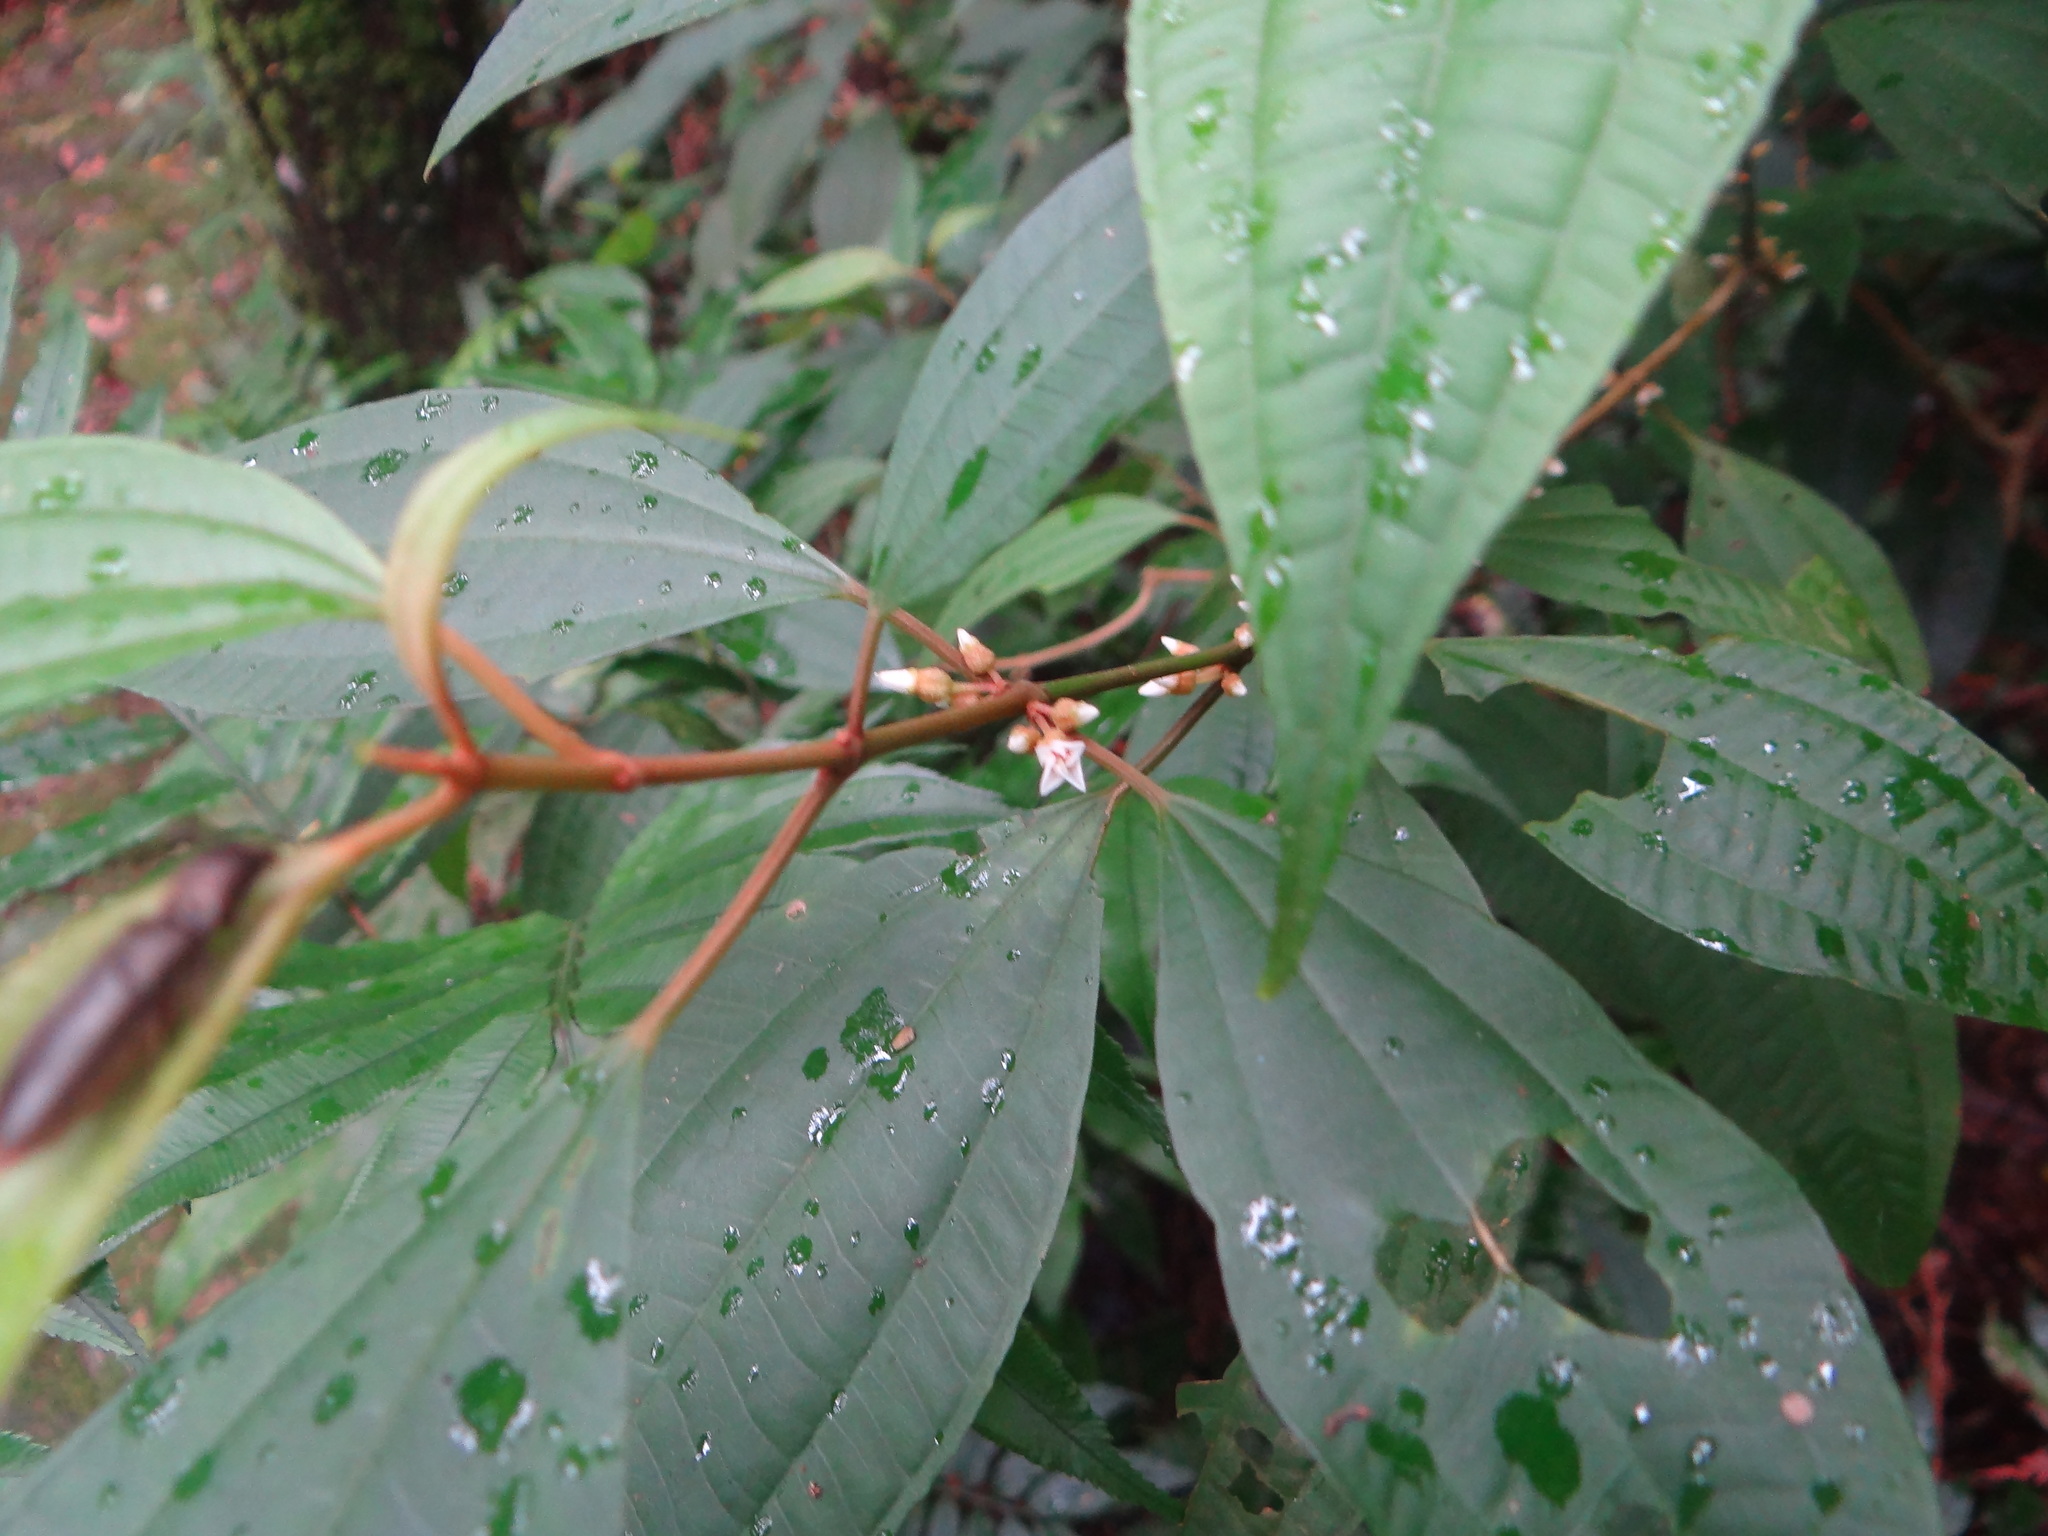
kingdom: Plantae
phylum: Tracheophyta
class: Magnoliopsida
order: Myrtales
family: Melastomataceae
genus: Blastus
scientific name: Blastus cochinchinensis
